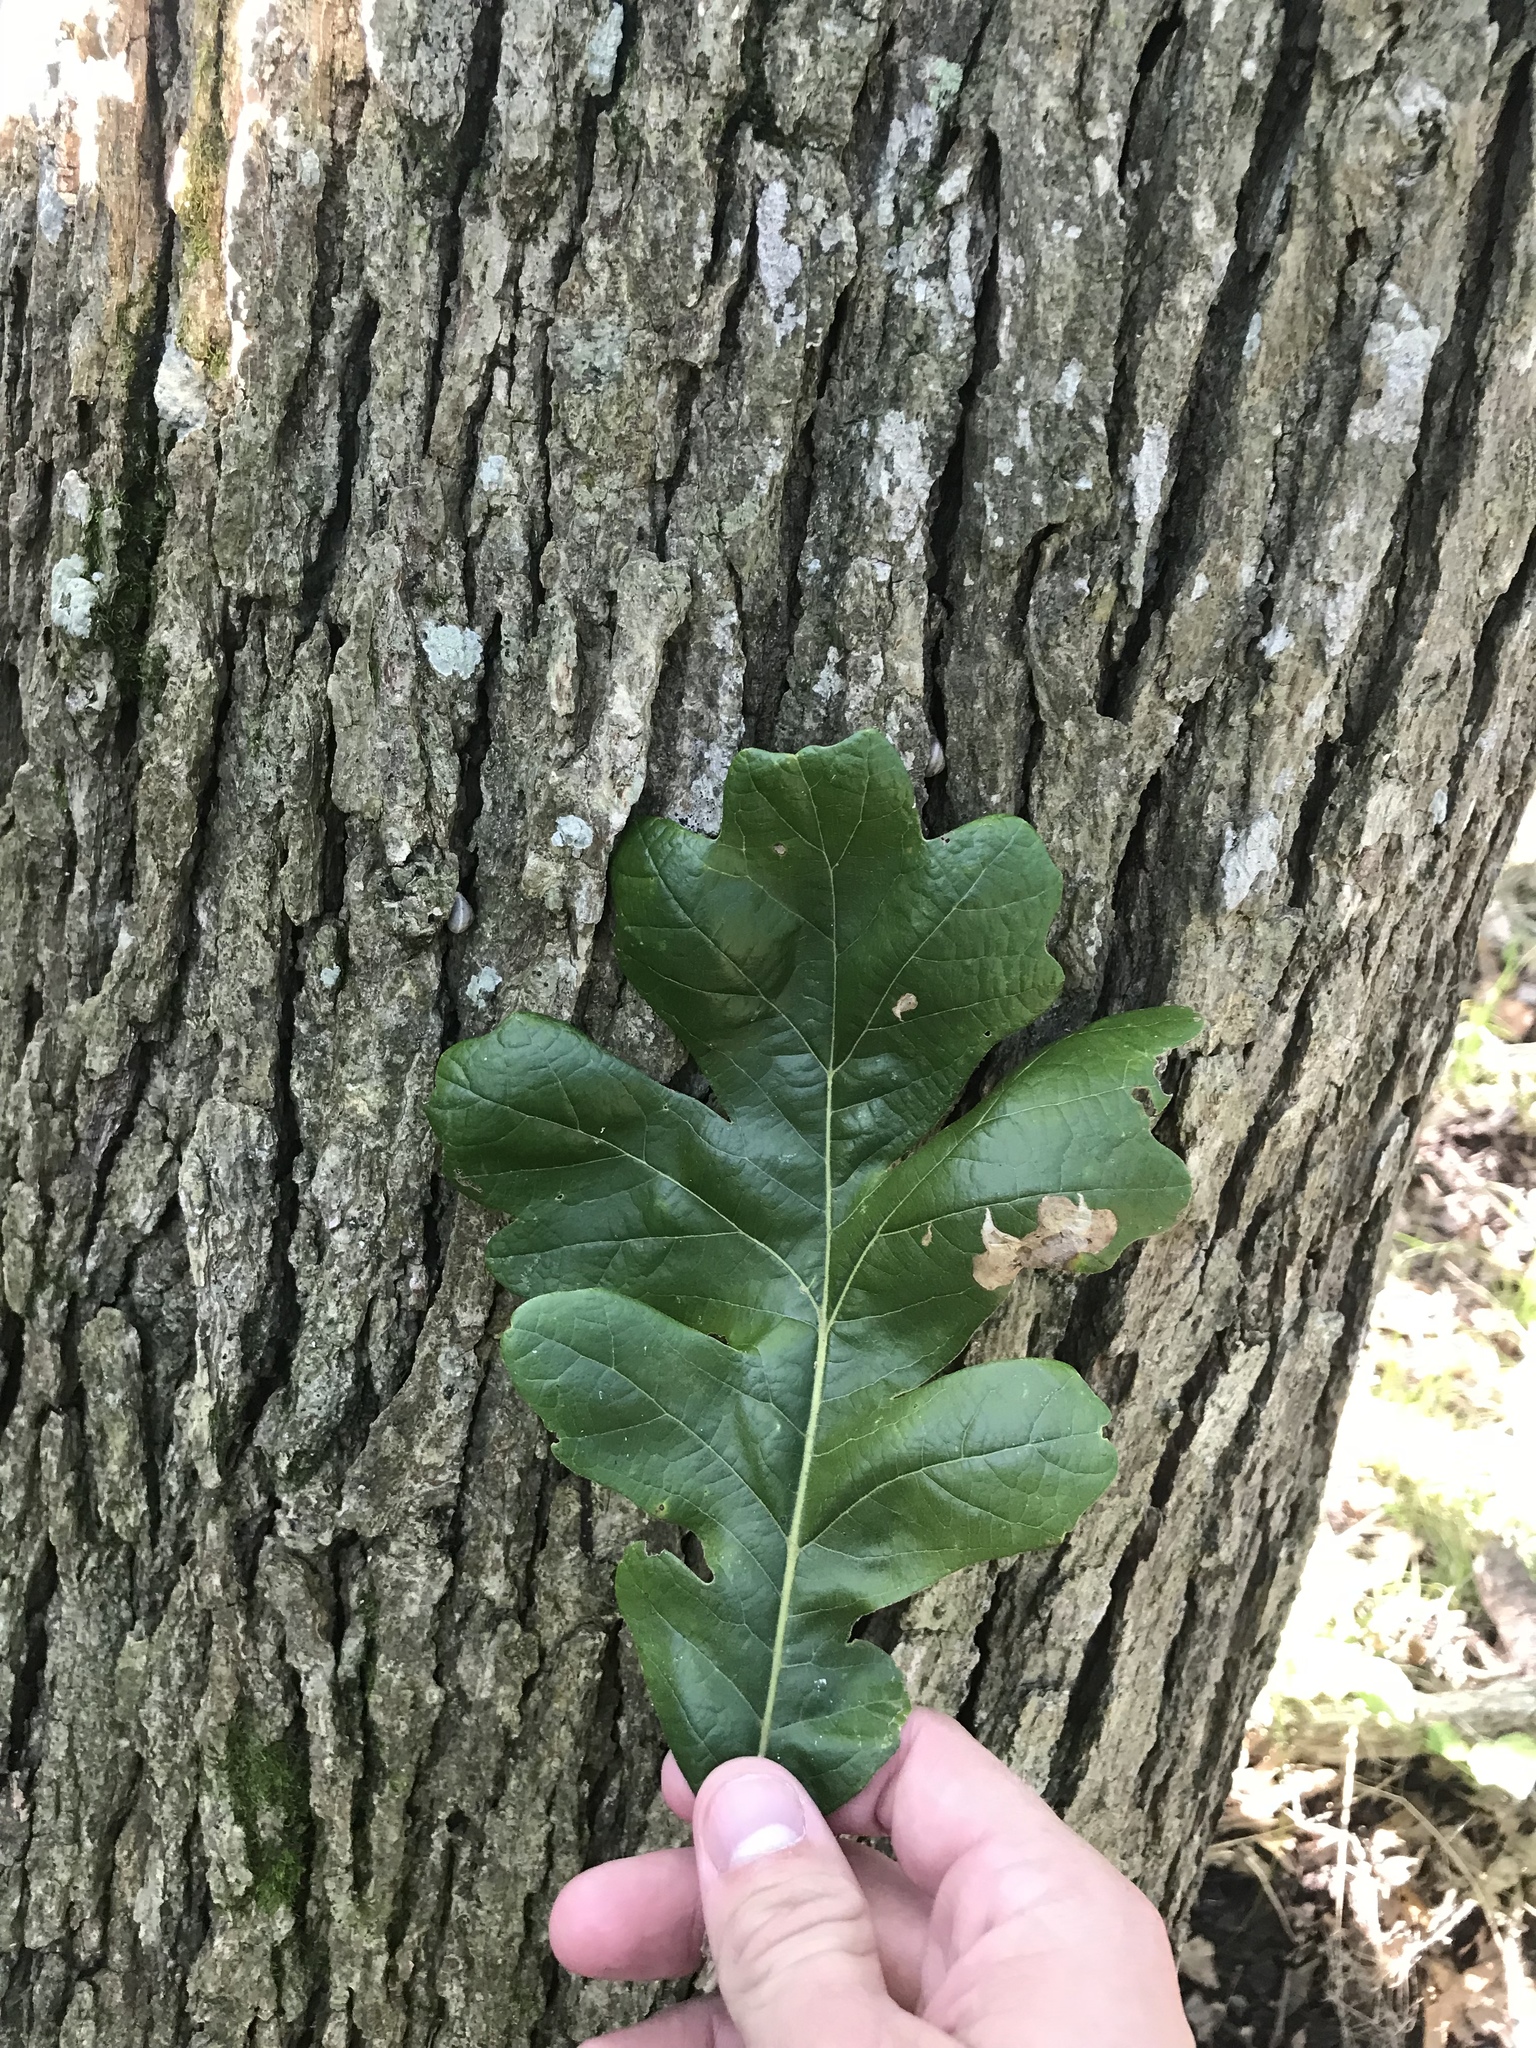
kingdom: Plantae
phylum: Tracheophyta
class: Magnoliopsida
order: Fagales
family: Fagaceae
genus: Quercus
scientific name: Quercus macrocarpa
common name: Bur oak
